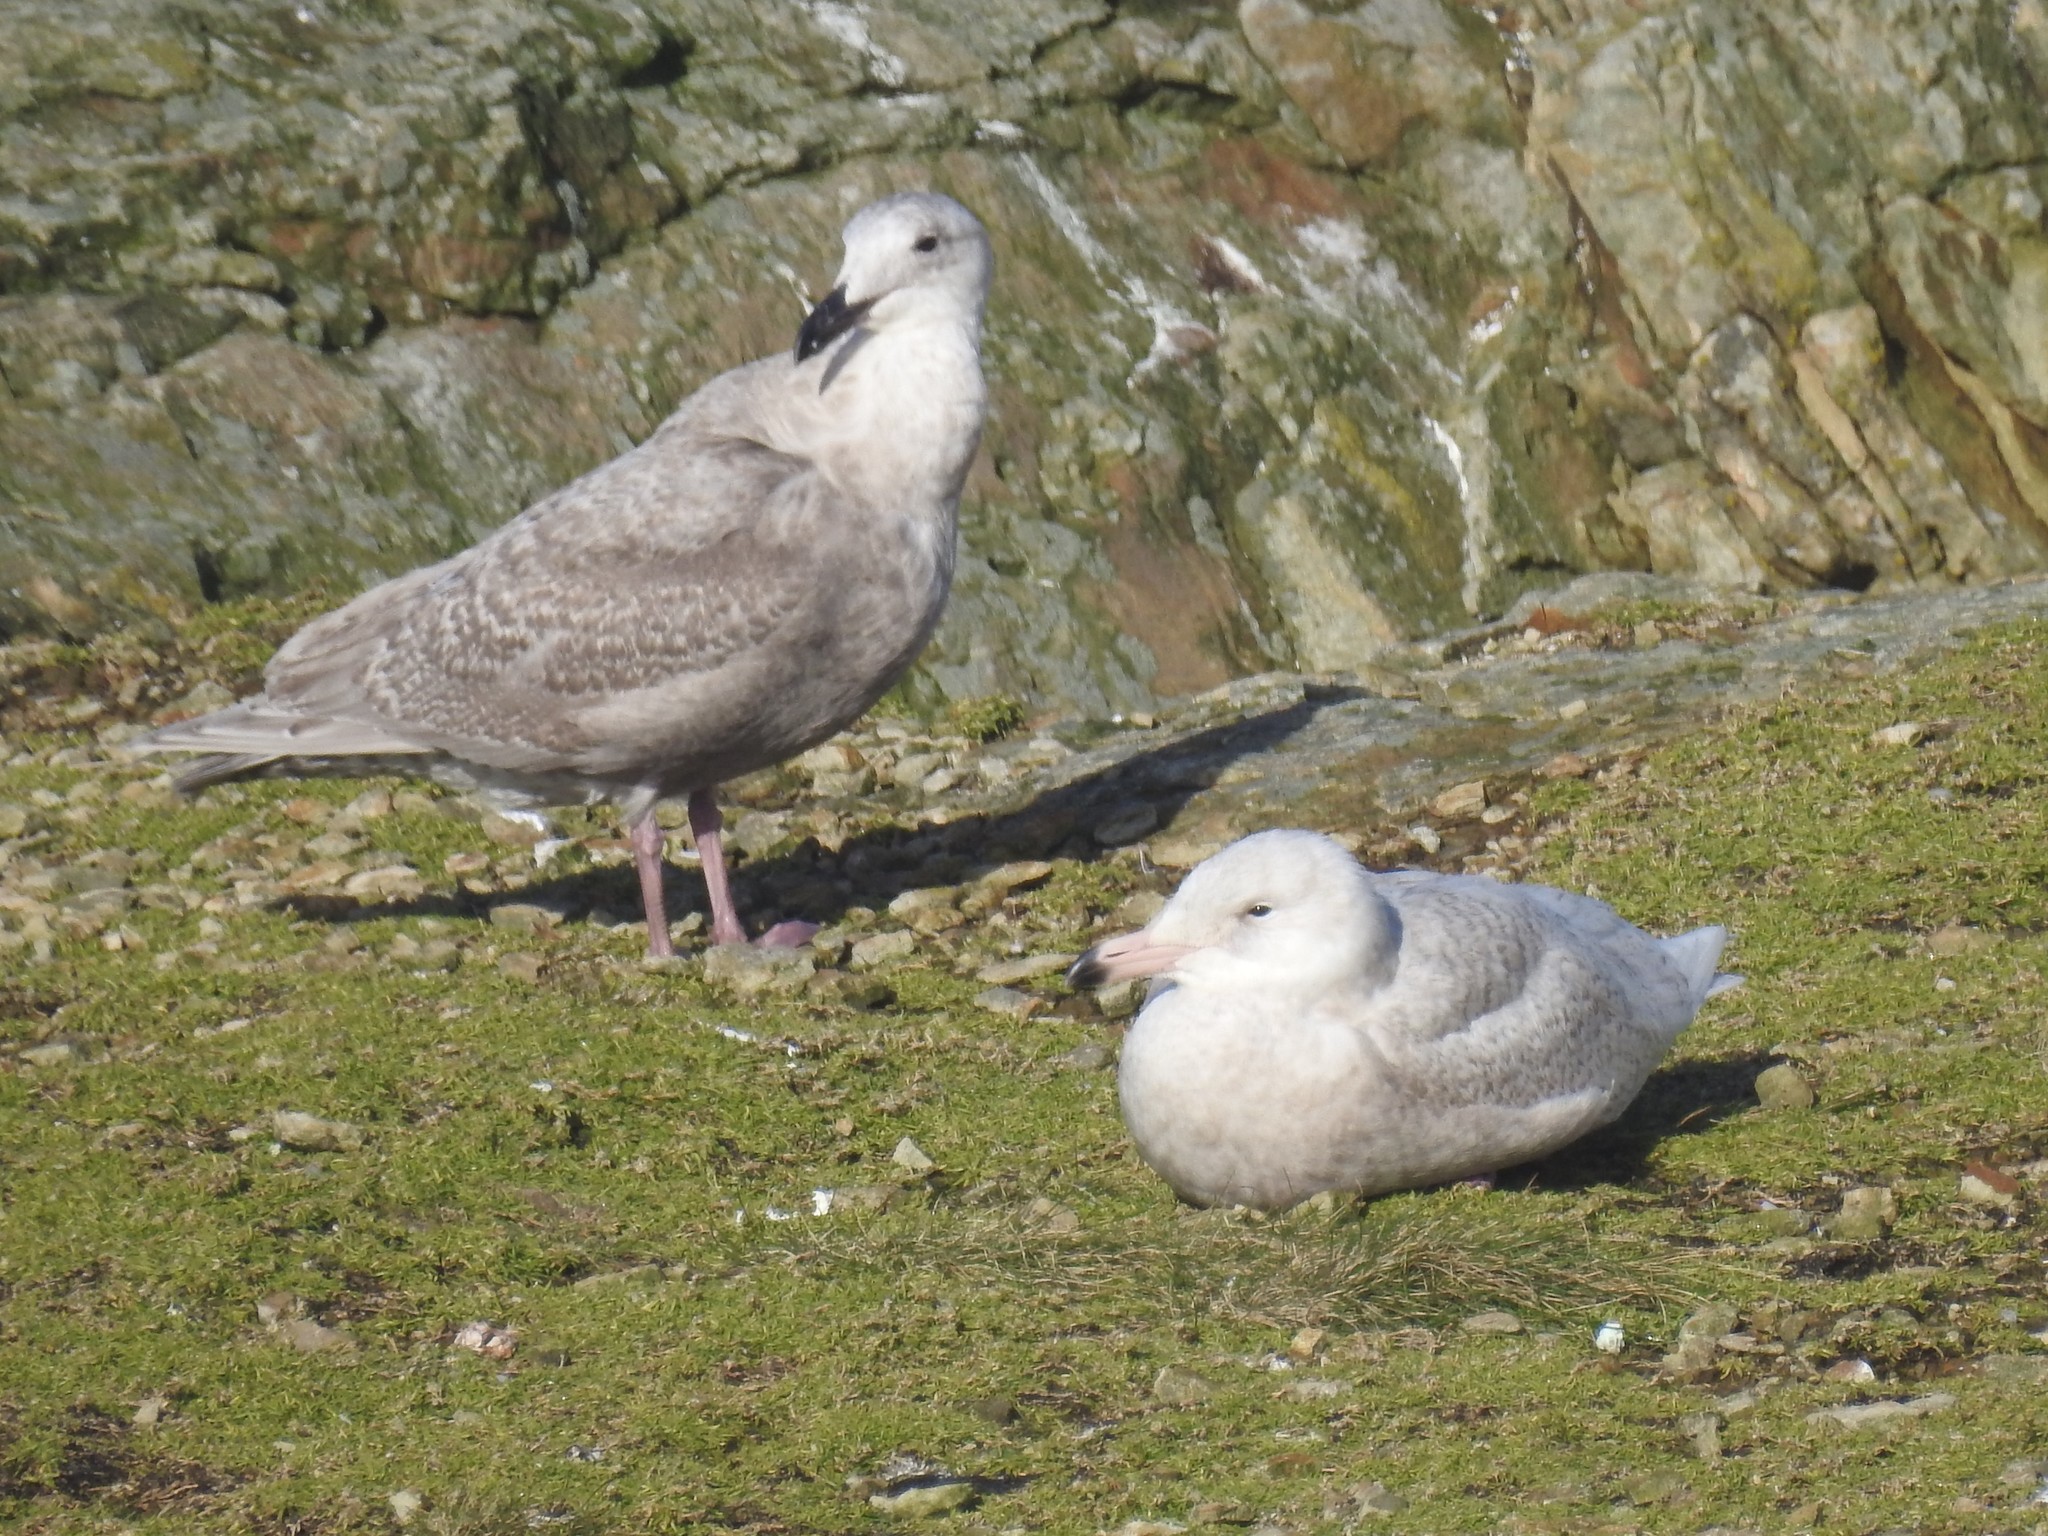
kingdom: Animalia
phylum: Chordata
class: Aves
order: Charadriiformes
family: Laridae
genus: Larus
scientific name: Larus glaucescens
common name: Glaucous-winged gull
